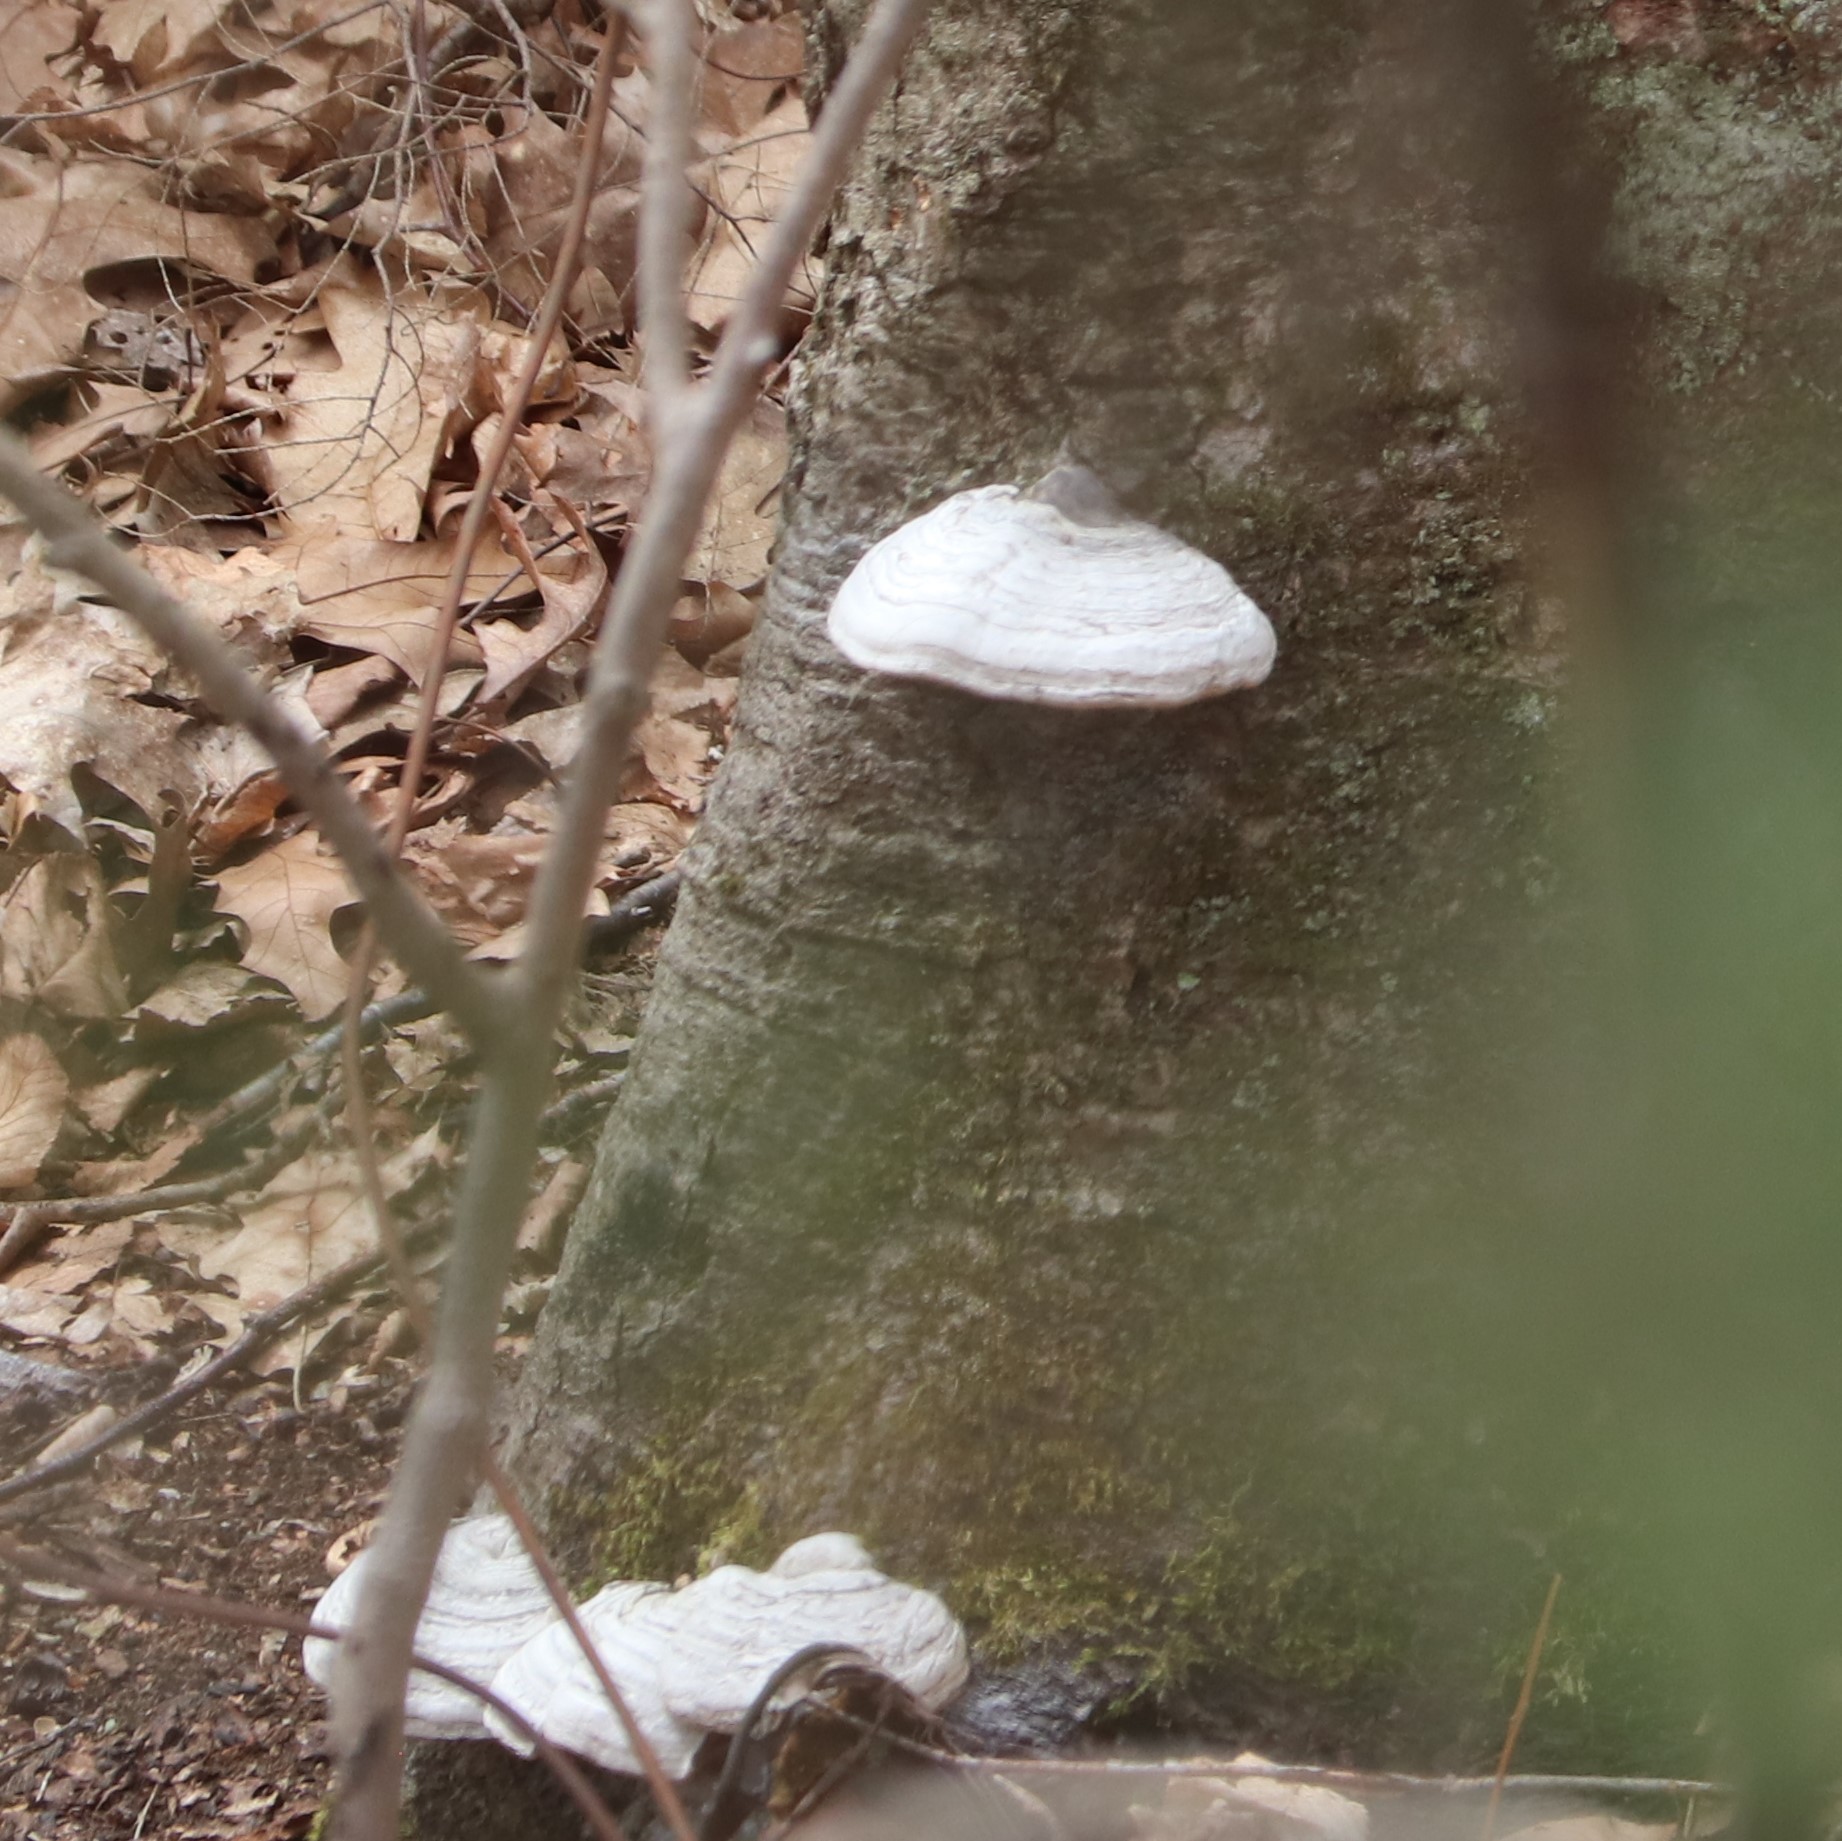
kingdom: Fungi
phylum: Basidiomycota
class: Agaricomycetes
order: Polyporales
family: Polyporaceae
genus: Fomes
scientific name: Fomes fomentarius
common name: Hoof fungus
